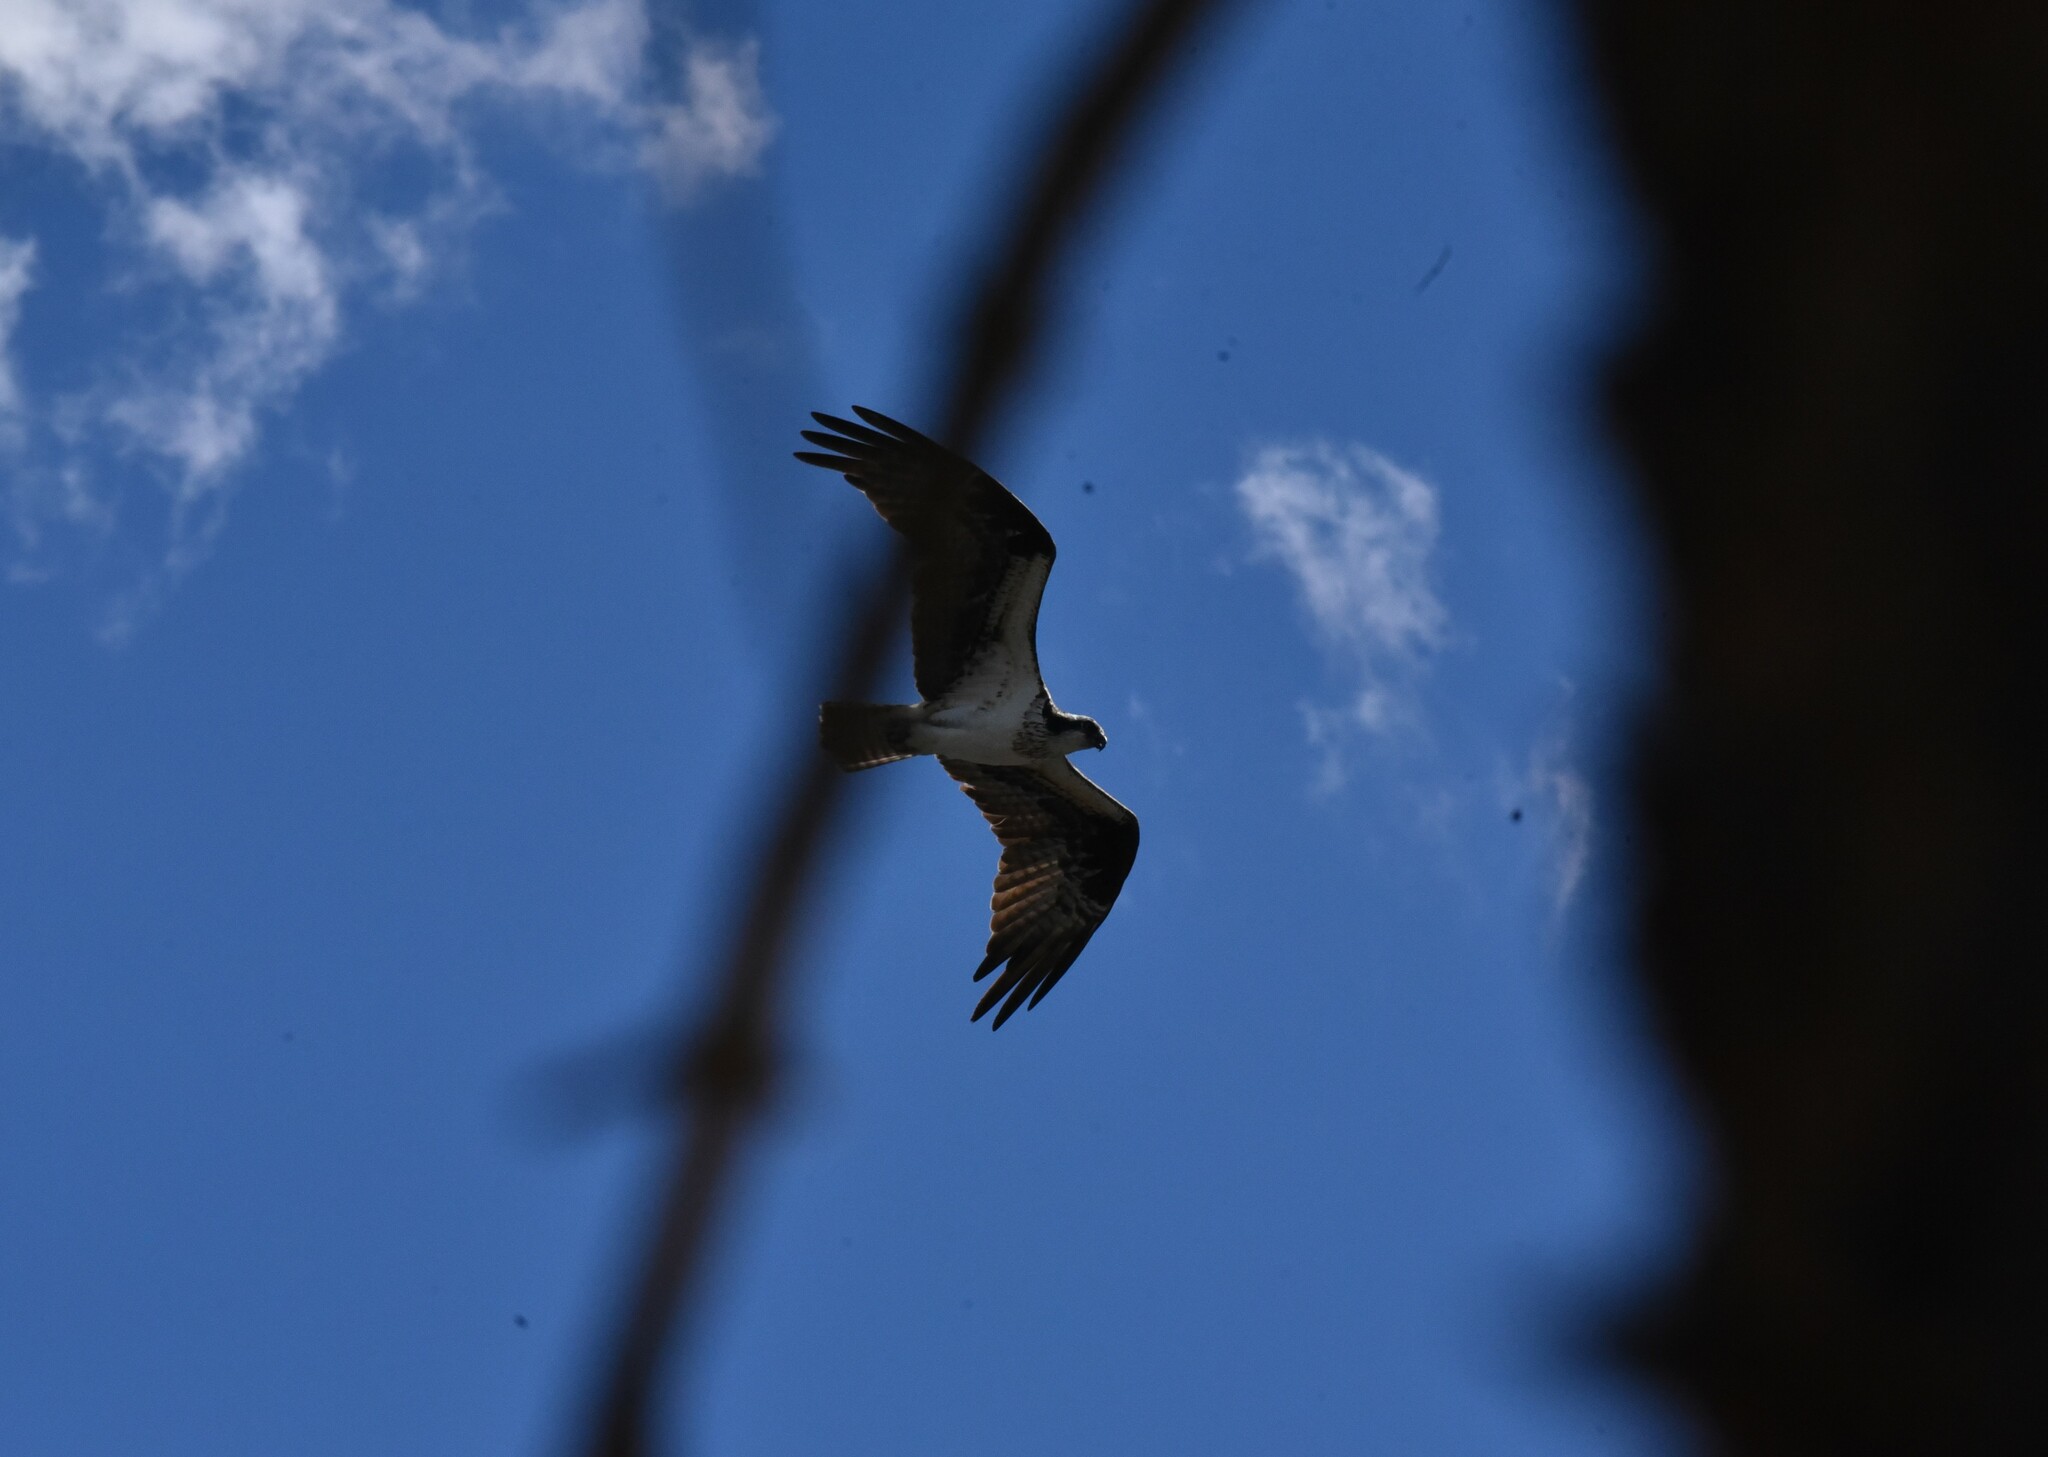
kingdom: Animalia
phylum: Chordata
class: Aves
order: Accipitriformes
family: Pandionidae
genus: Pandion
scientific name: Pandion haliaetus
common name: Osprey
